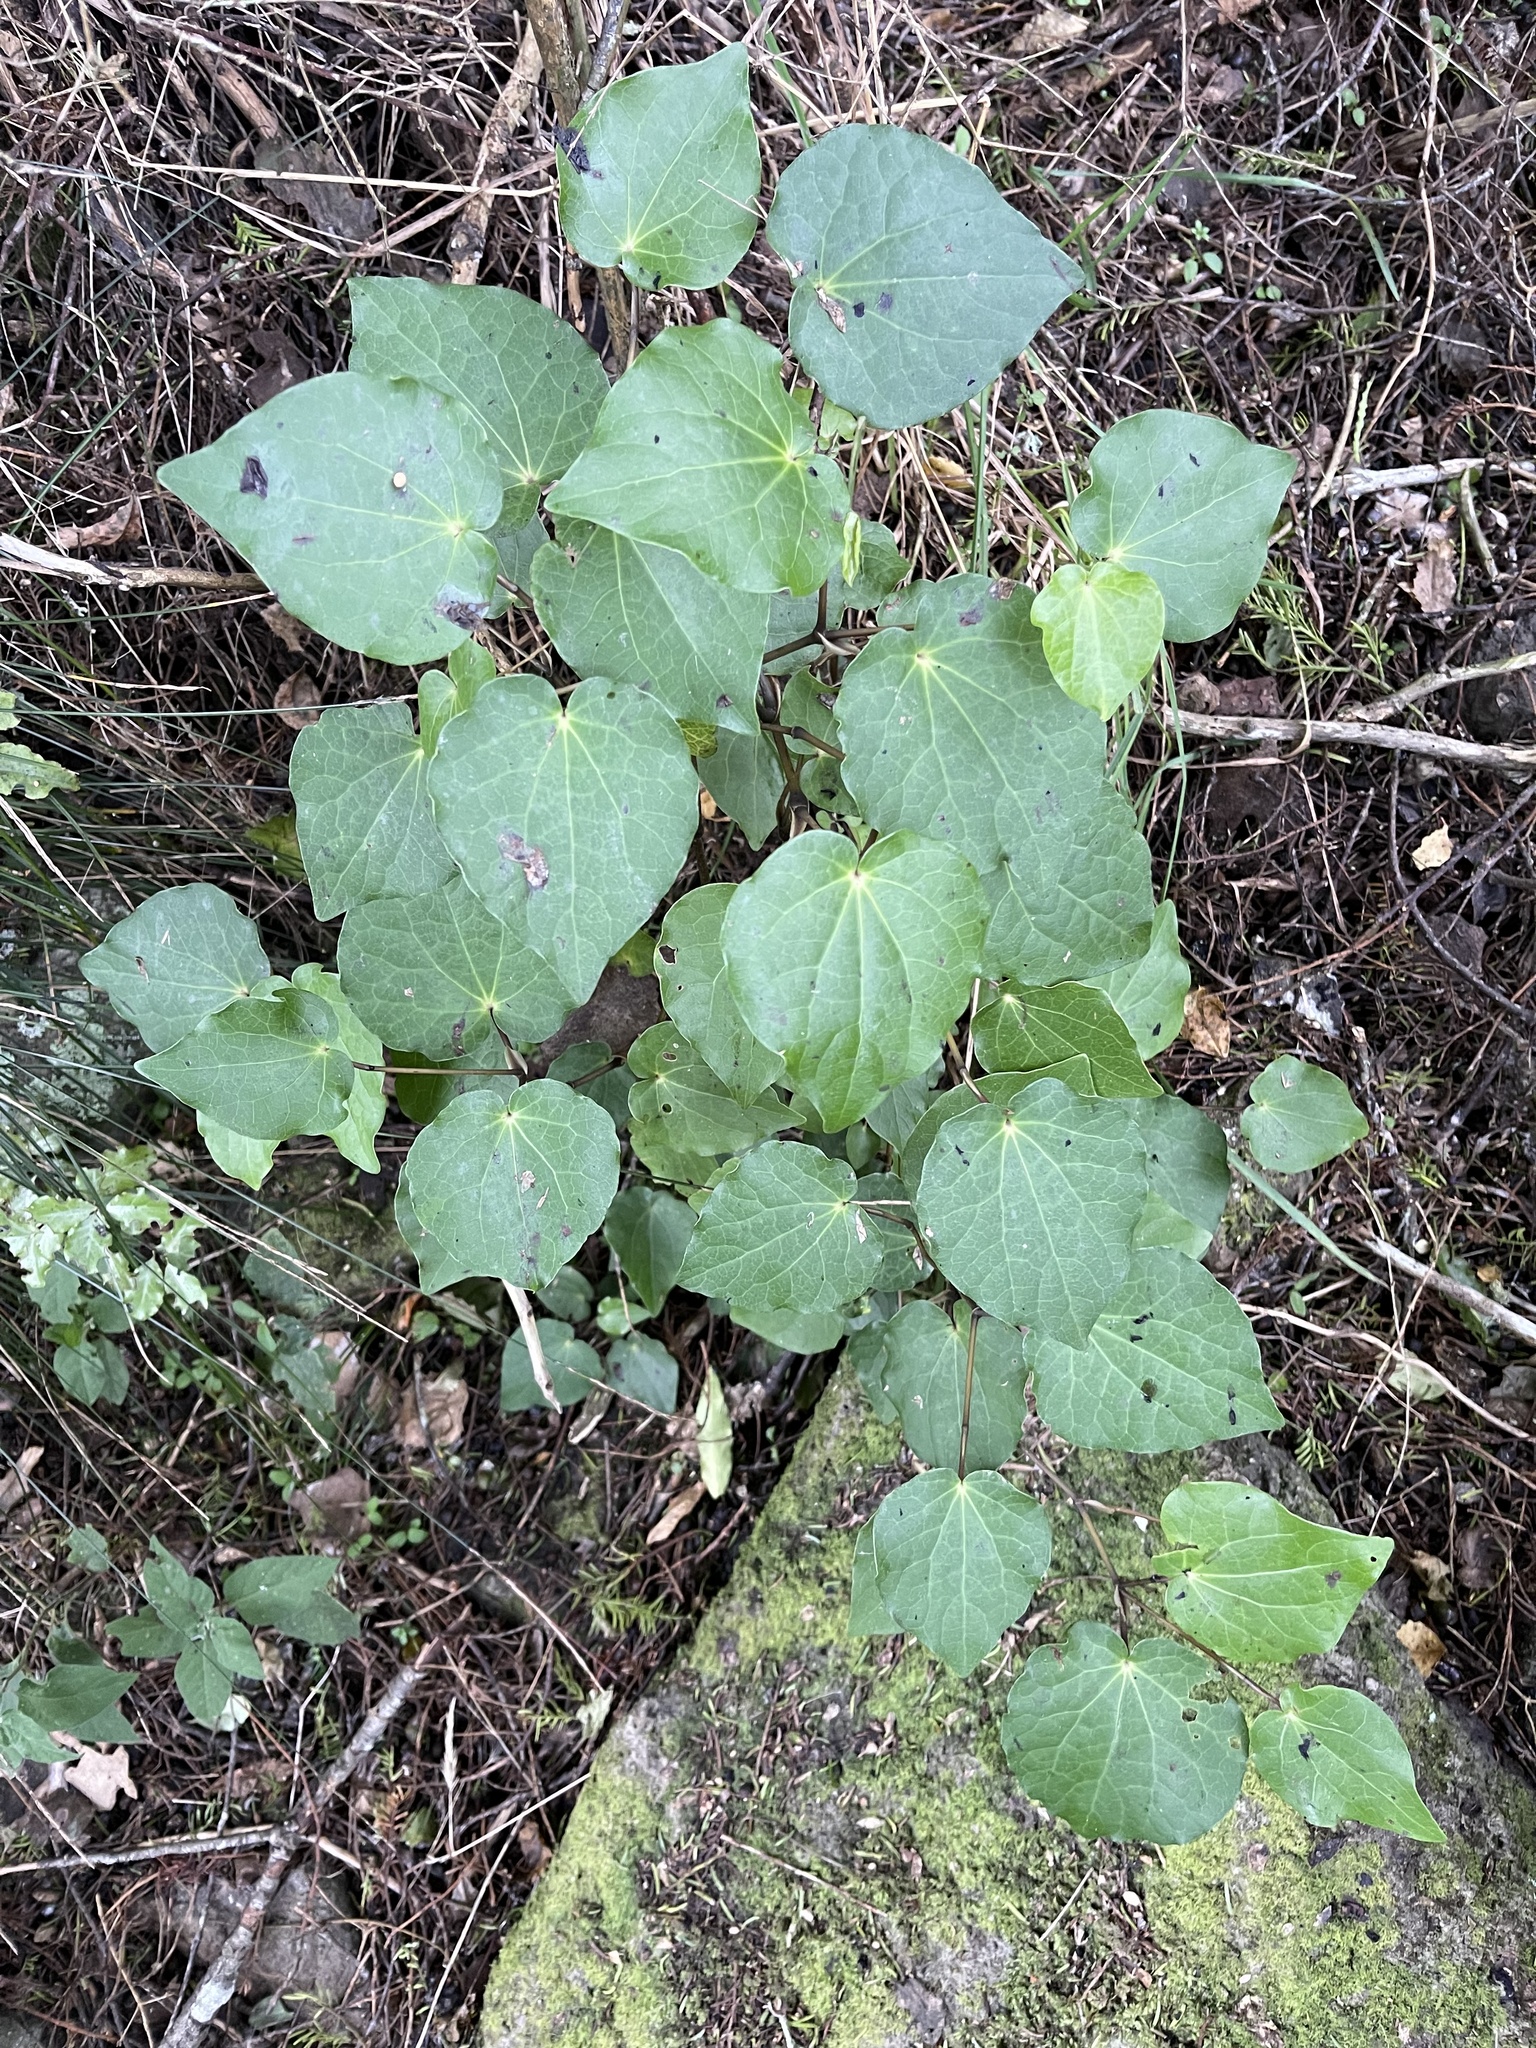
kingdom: Plantae
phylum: Tracheophyta
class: Magnoliopsida
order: Piperales
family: Piperaceae
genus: Macropiper
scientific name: Macropiper excelsum
